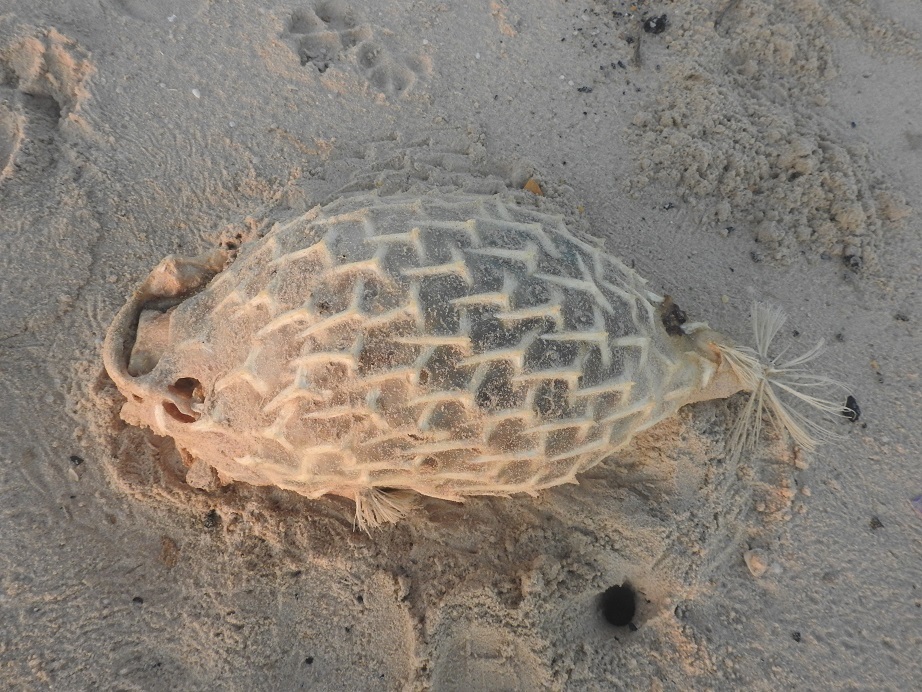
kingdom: Animalia
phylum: Chordata
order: Tetraodontiformes
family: Diodontidae
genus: Chilomycterus
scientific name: Chilomycterus reticulatus
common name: Spotfin burrfish
